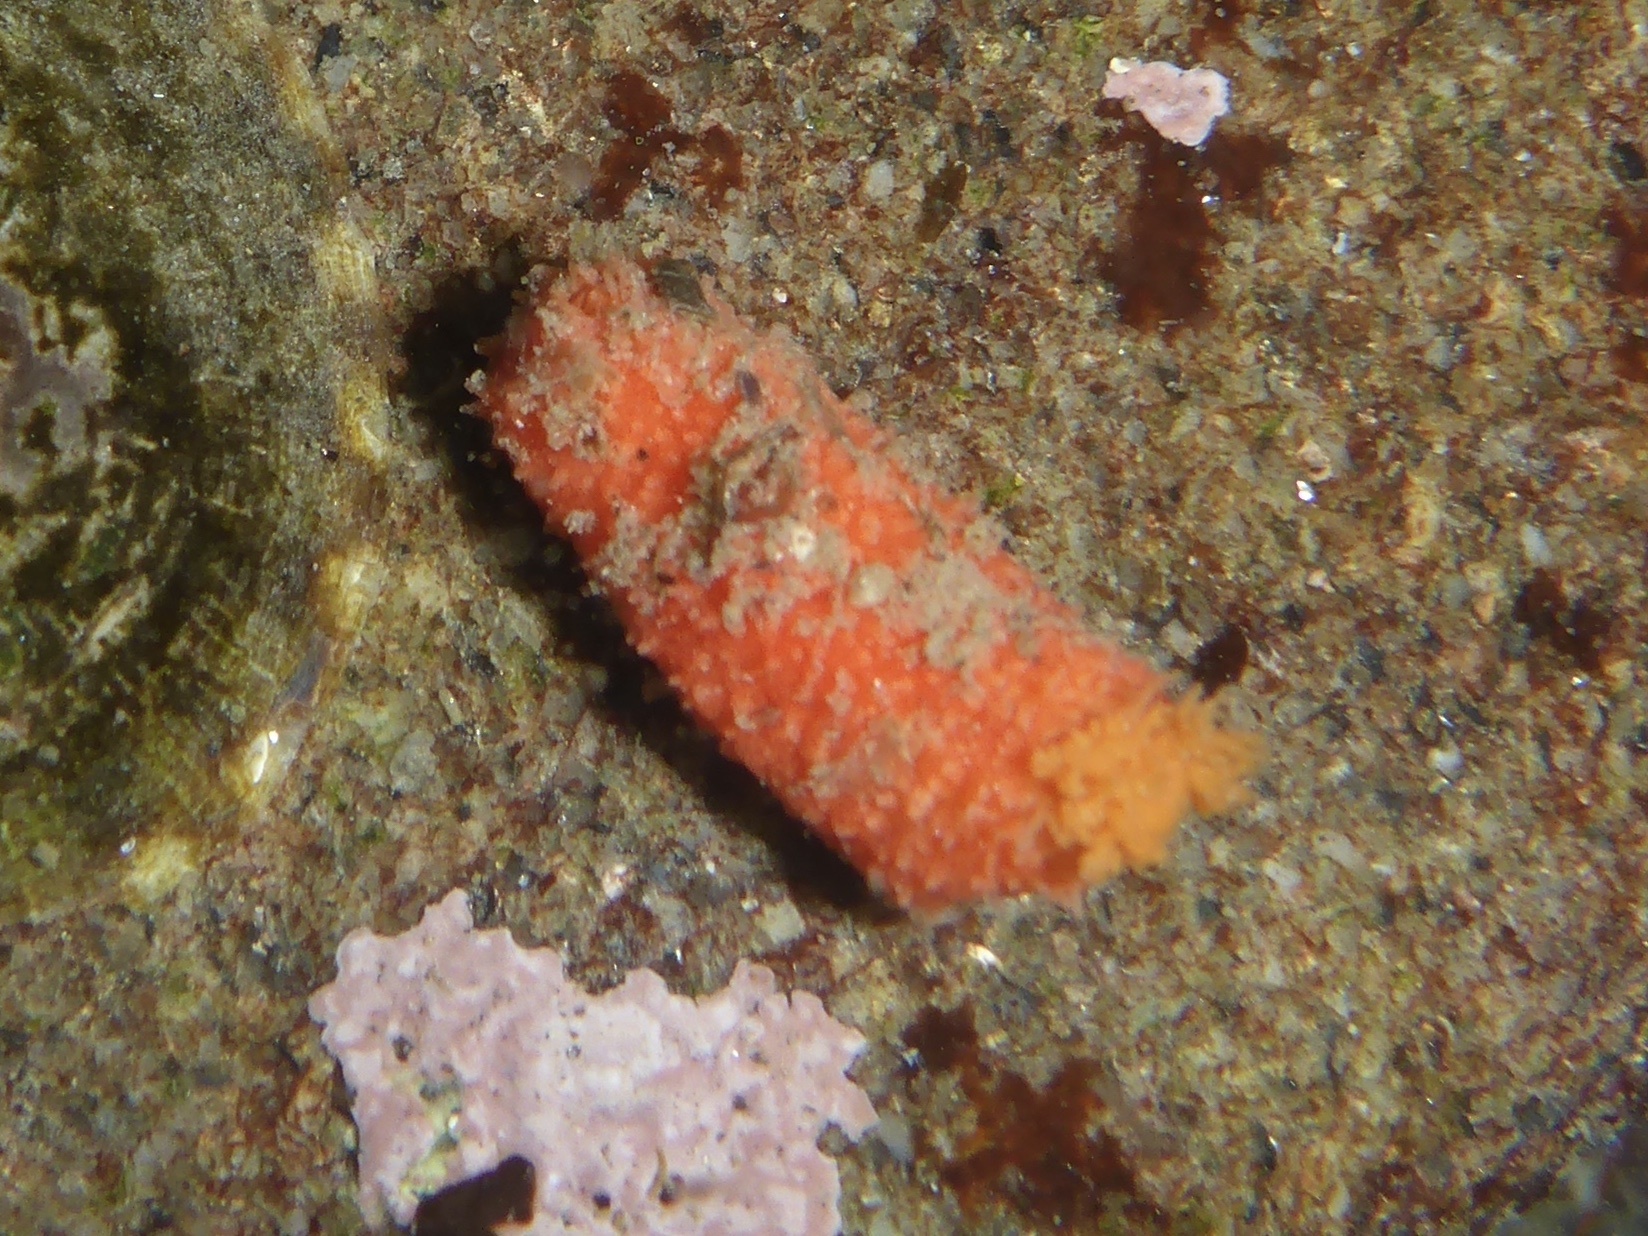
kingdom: Animalia
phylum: Echinodermata
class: Holothuroidea
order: Dendrochirotida
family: Psolidae
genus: Lissothuria
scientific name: Lissothuria nutriens
